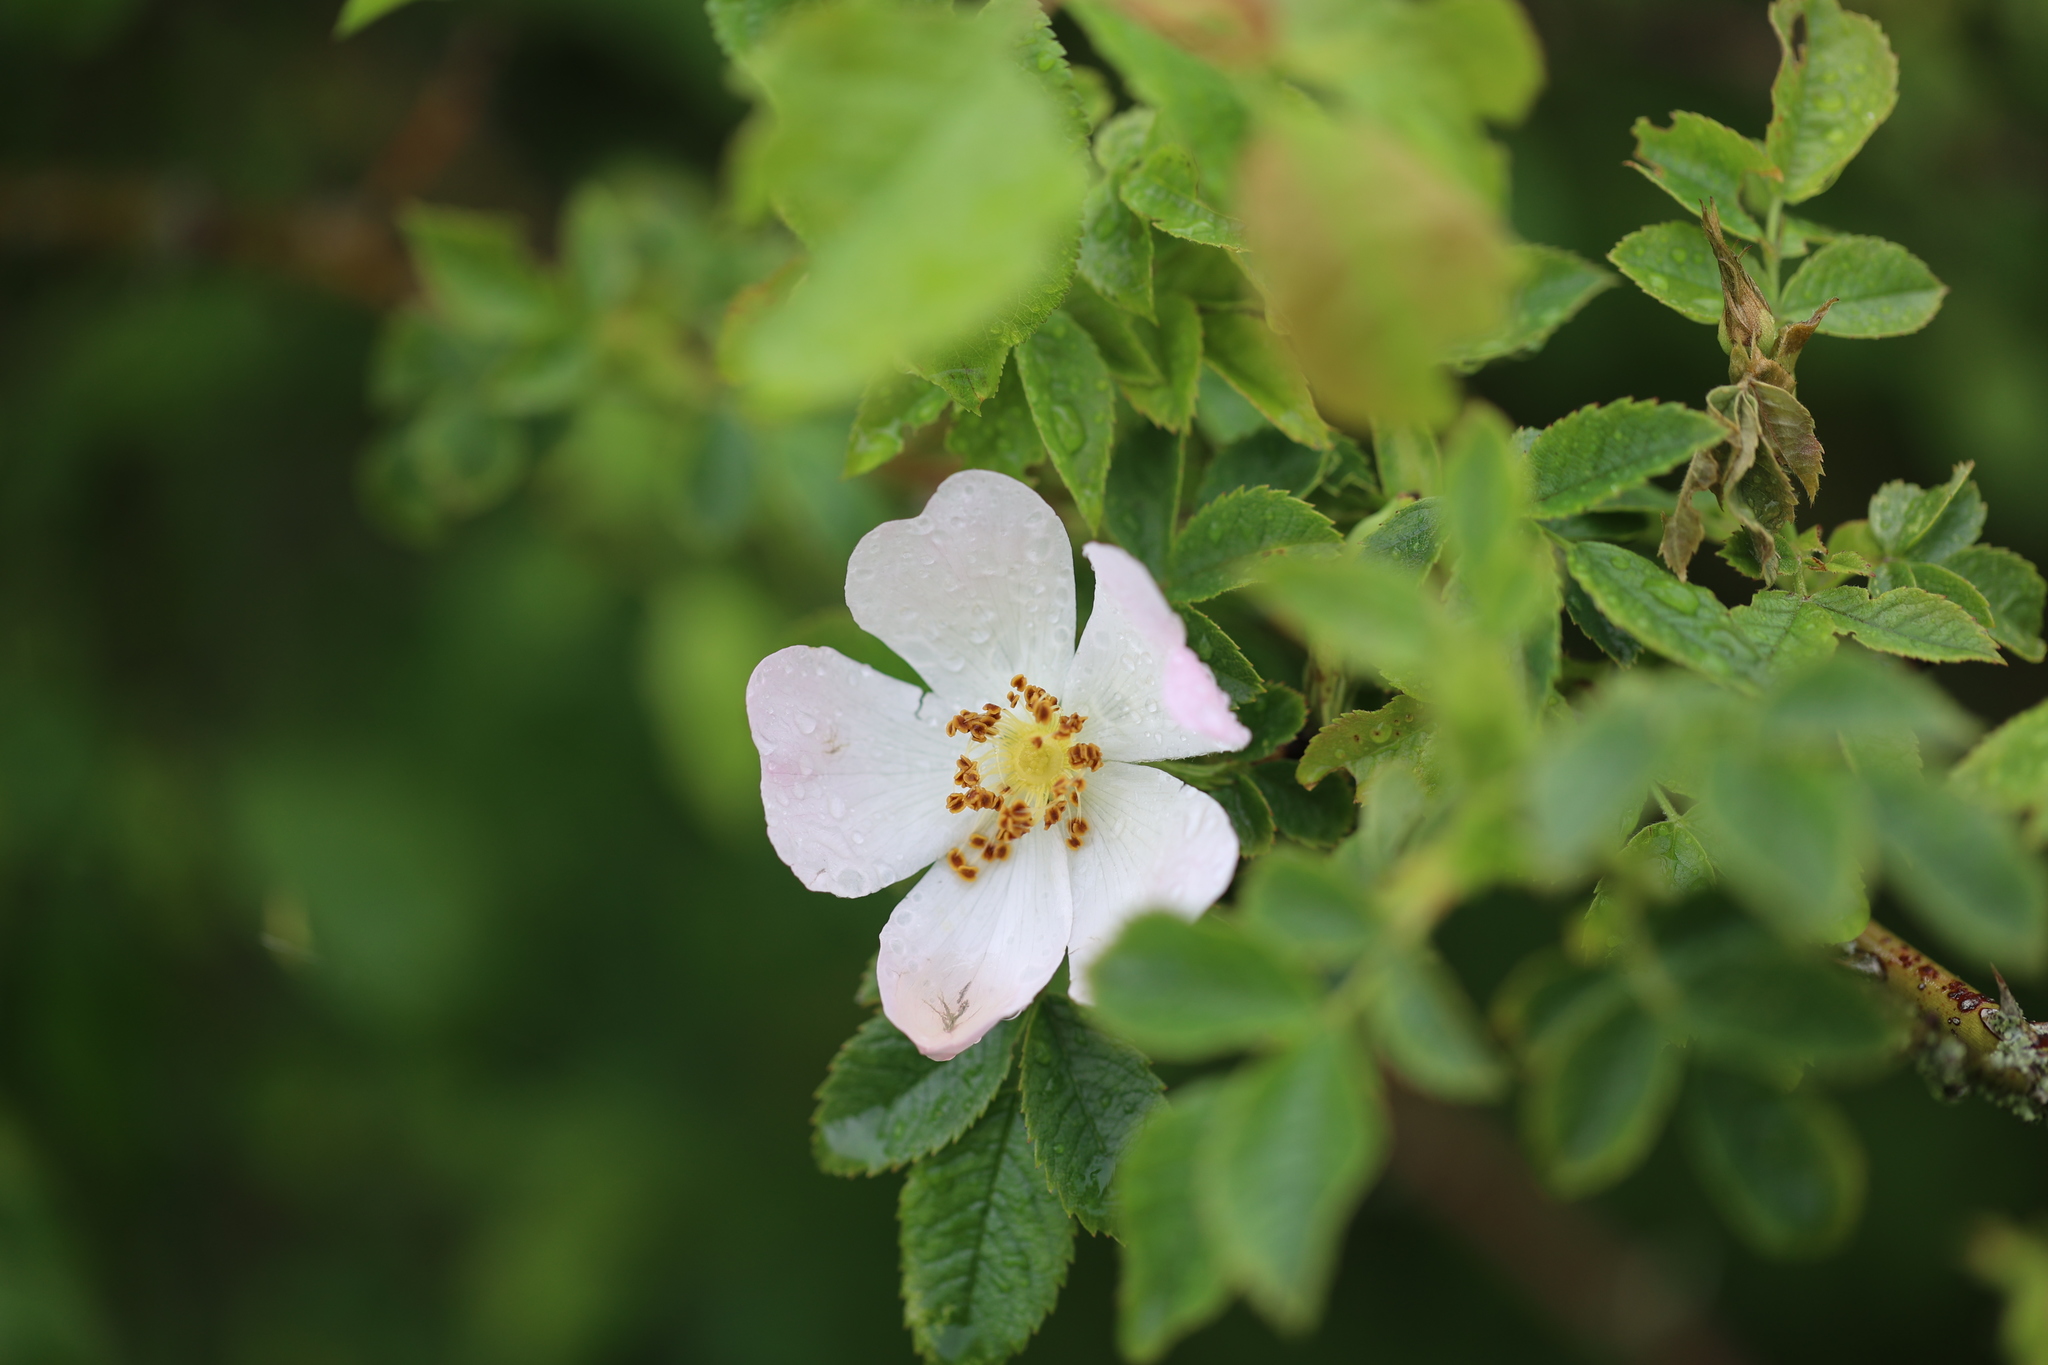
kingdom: Plantae
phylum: Tracheophyta
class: Magnoliopsida
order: Rosales
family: Rosaceae
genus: Rosa
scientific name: Rosa canina
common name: Dog rose
